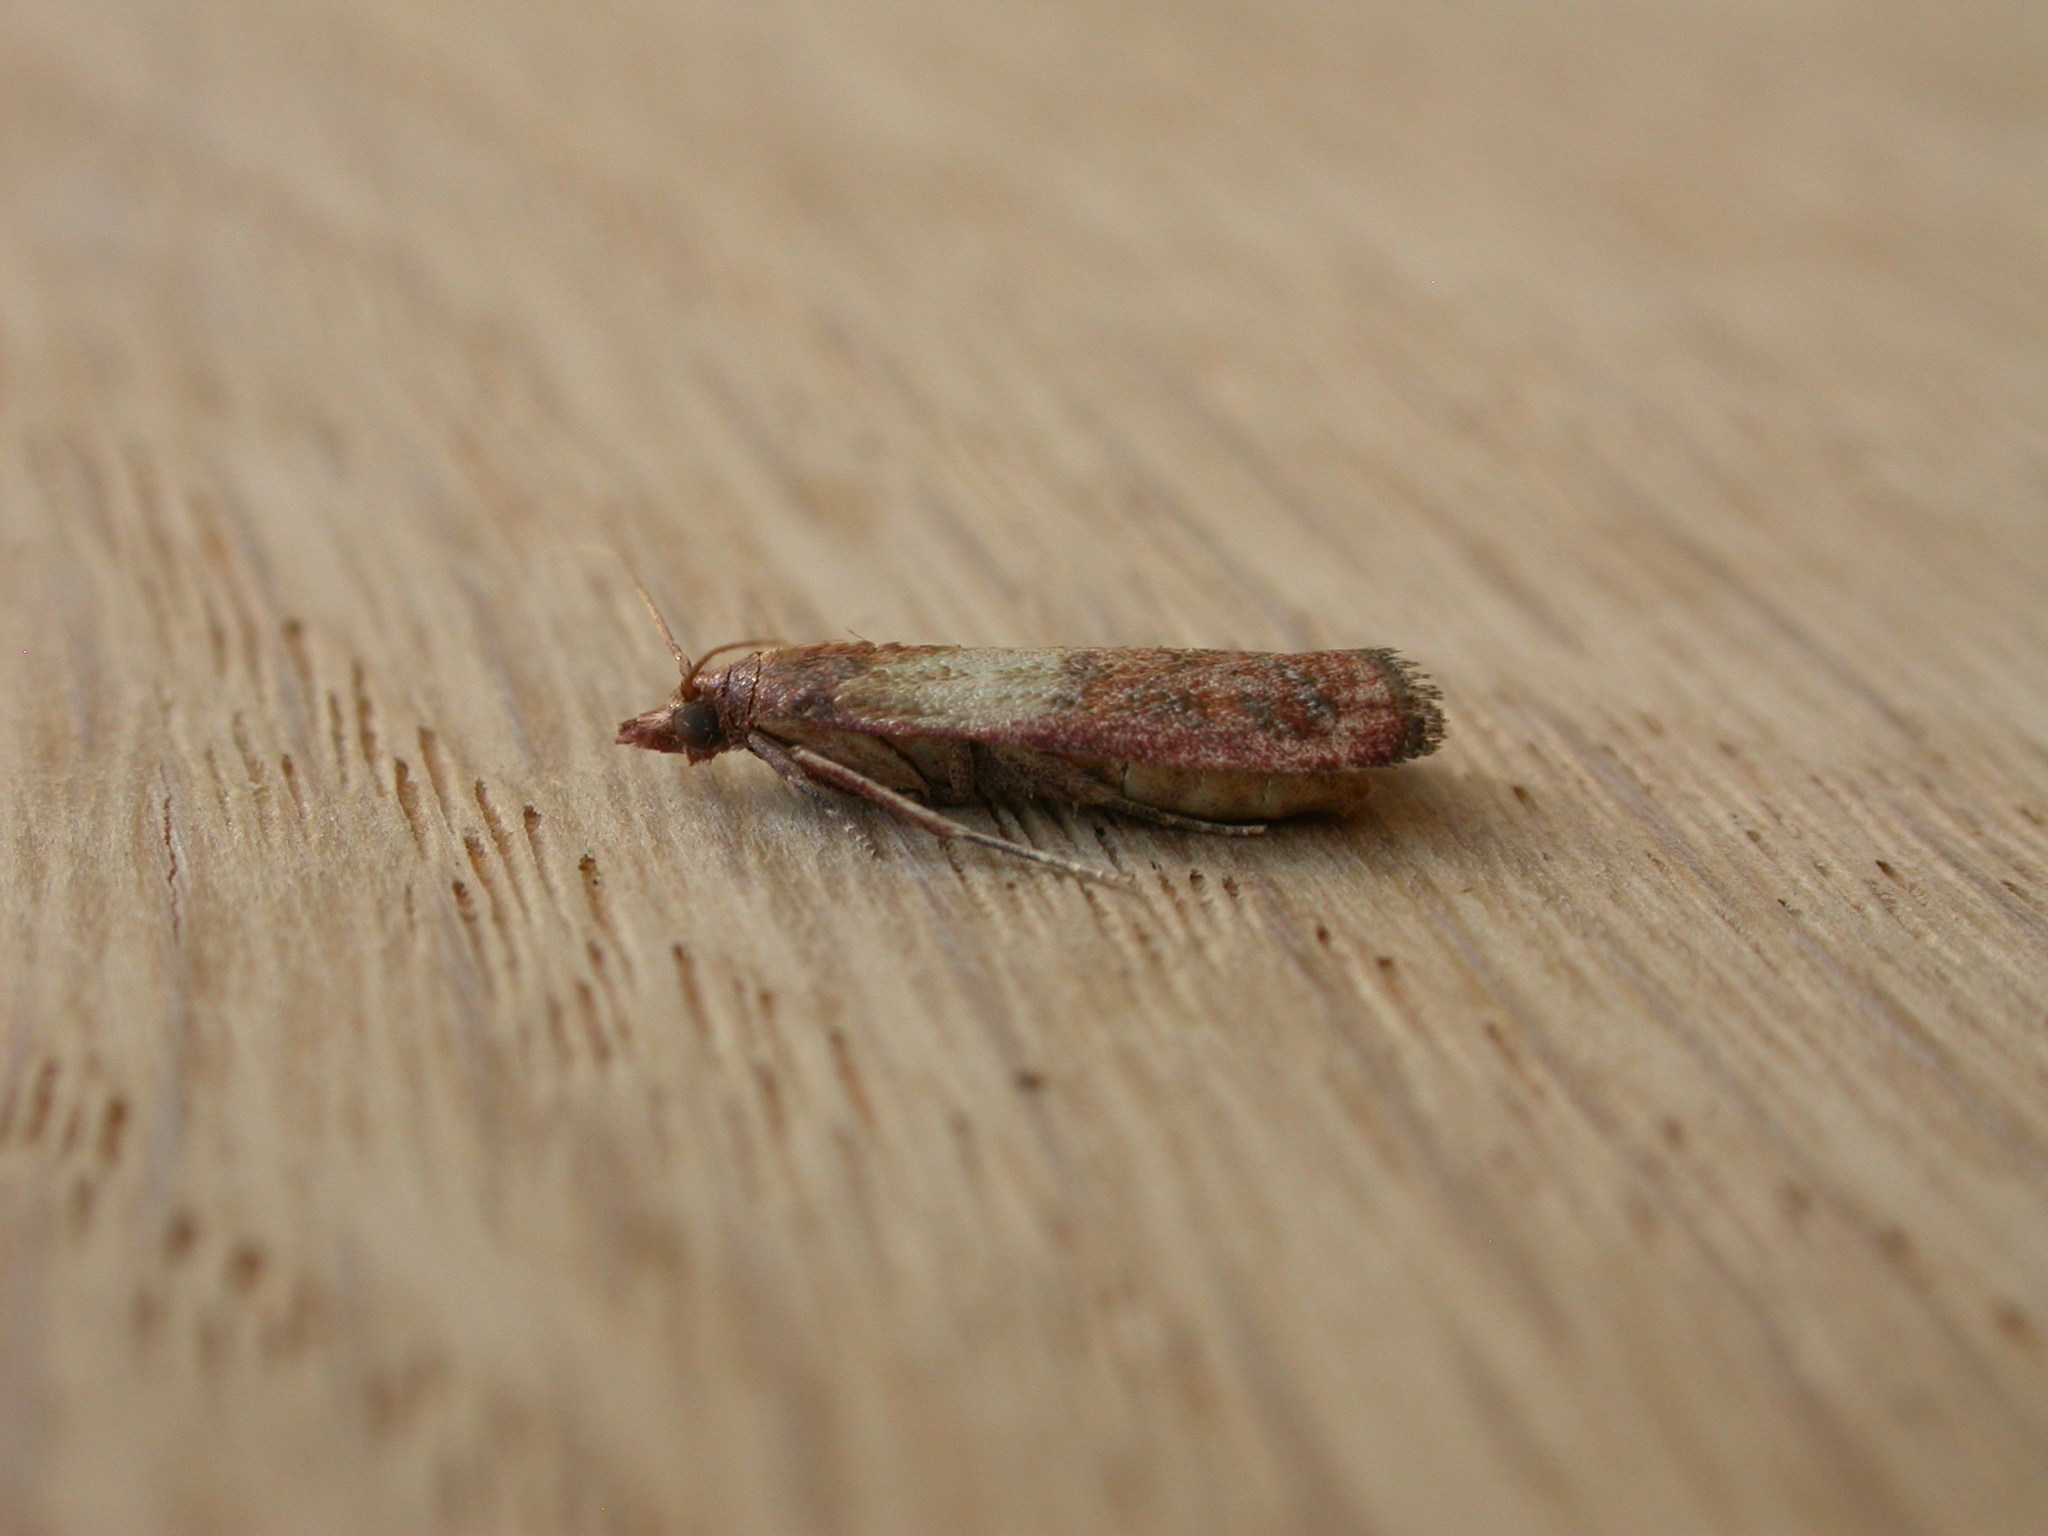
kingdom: Animalia
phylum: Arthropoda
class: Insecta
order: Lepidoptera
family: Pyralidae
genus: Plodia
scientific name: Plodia interpunctella
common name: Indian meal moth
